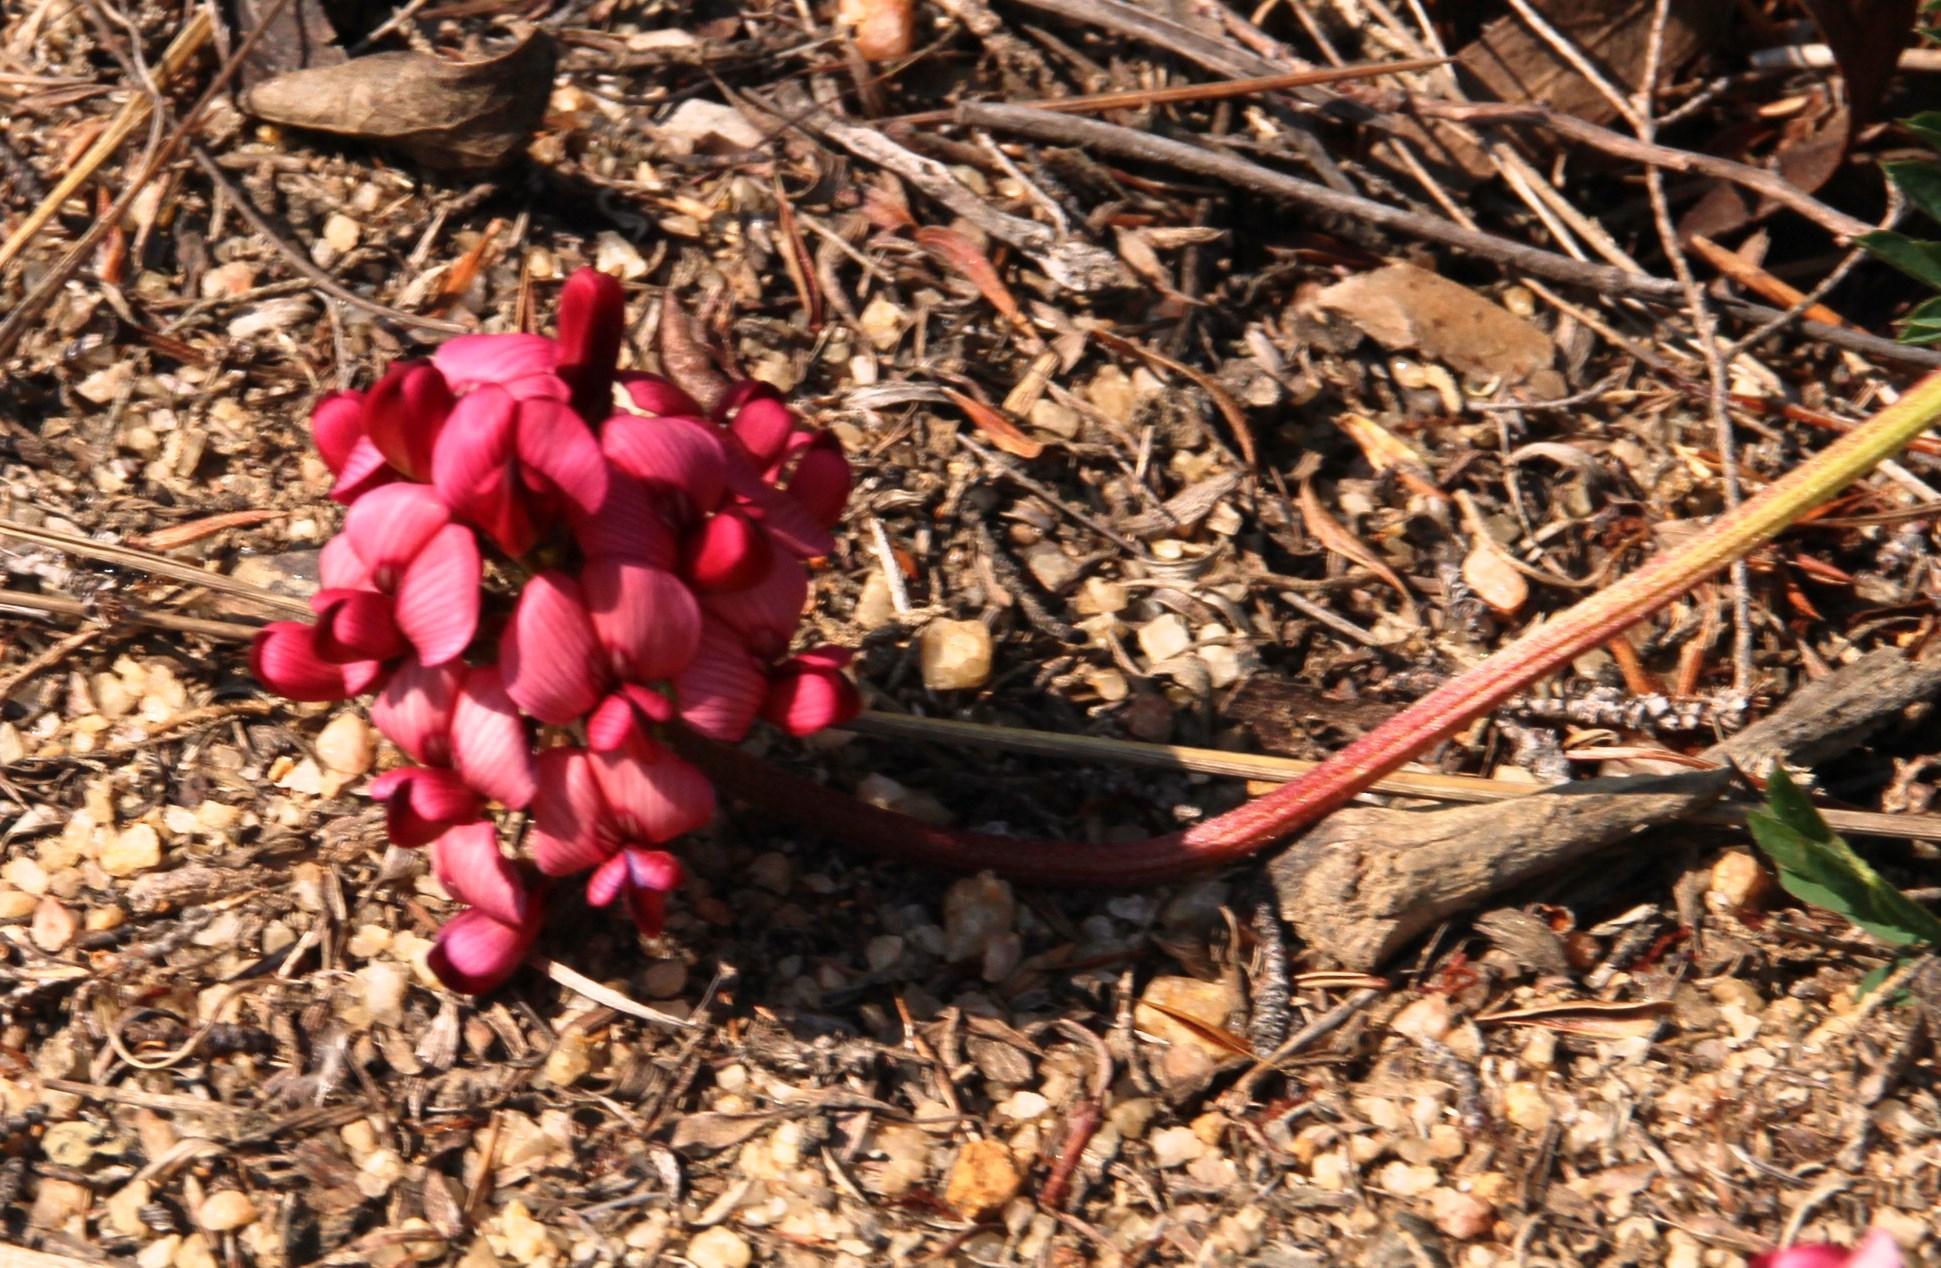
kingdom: Plantae
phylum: Tracheophyta
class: Magnoliopsida
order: Fabales
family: Fabaceae
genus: Lessertia
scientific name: Lessertia capensis
